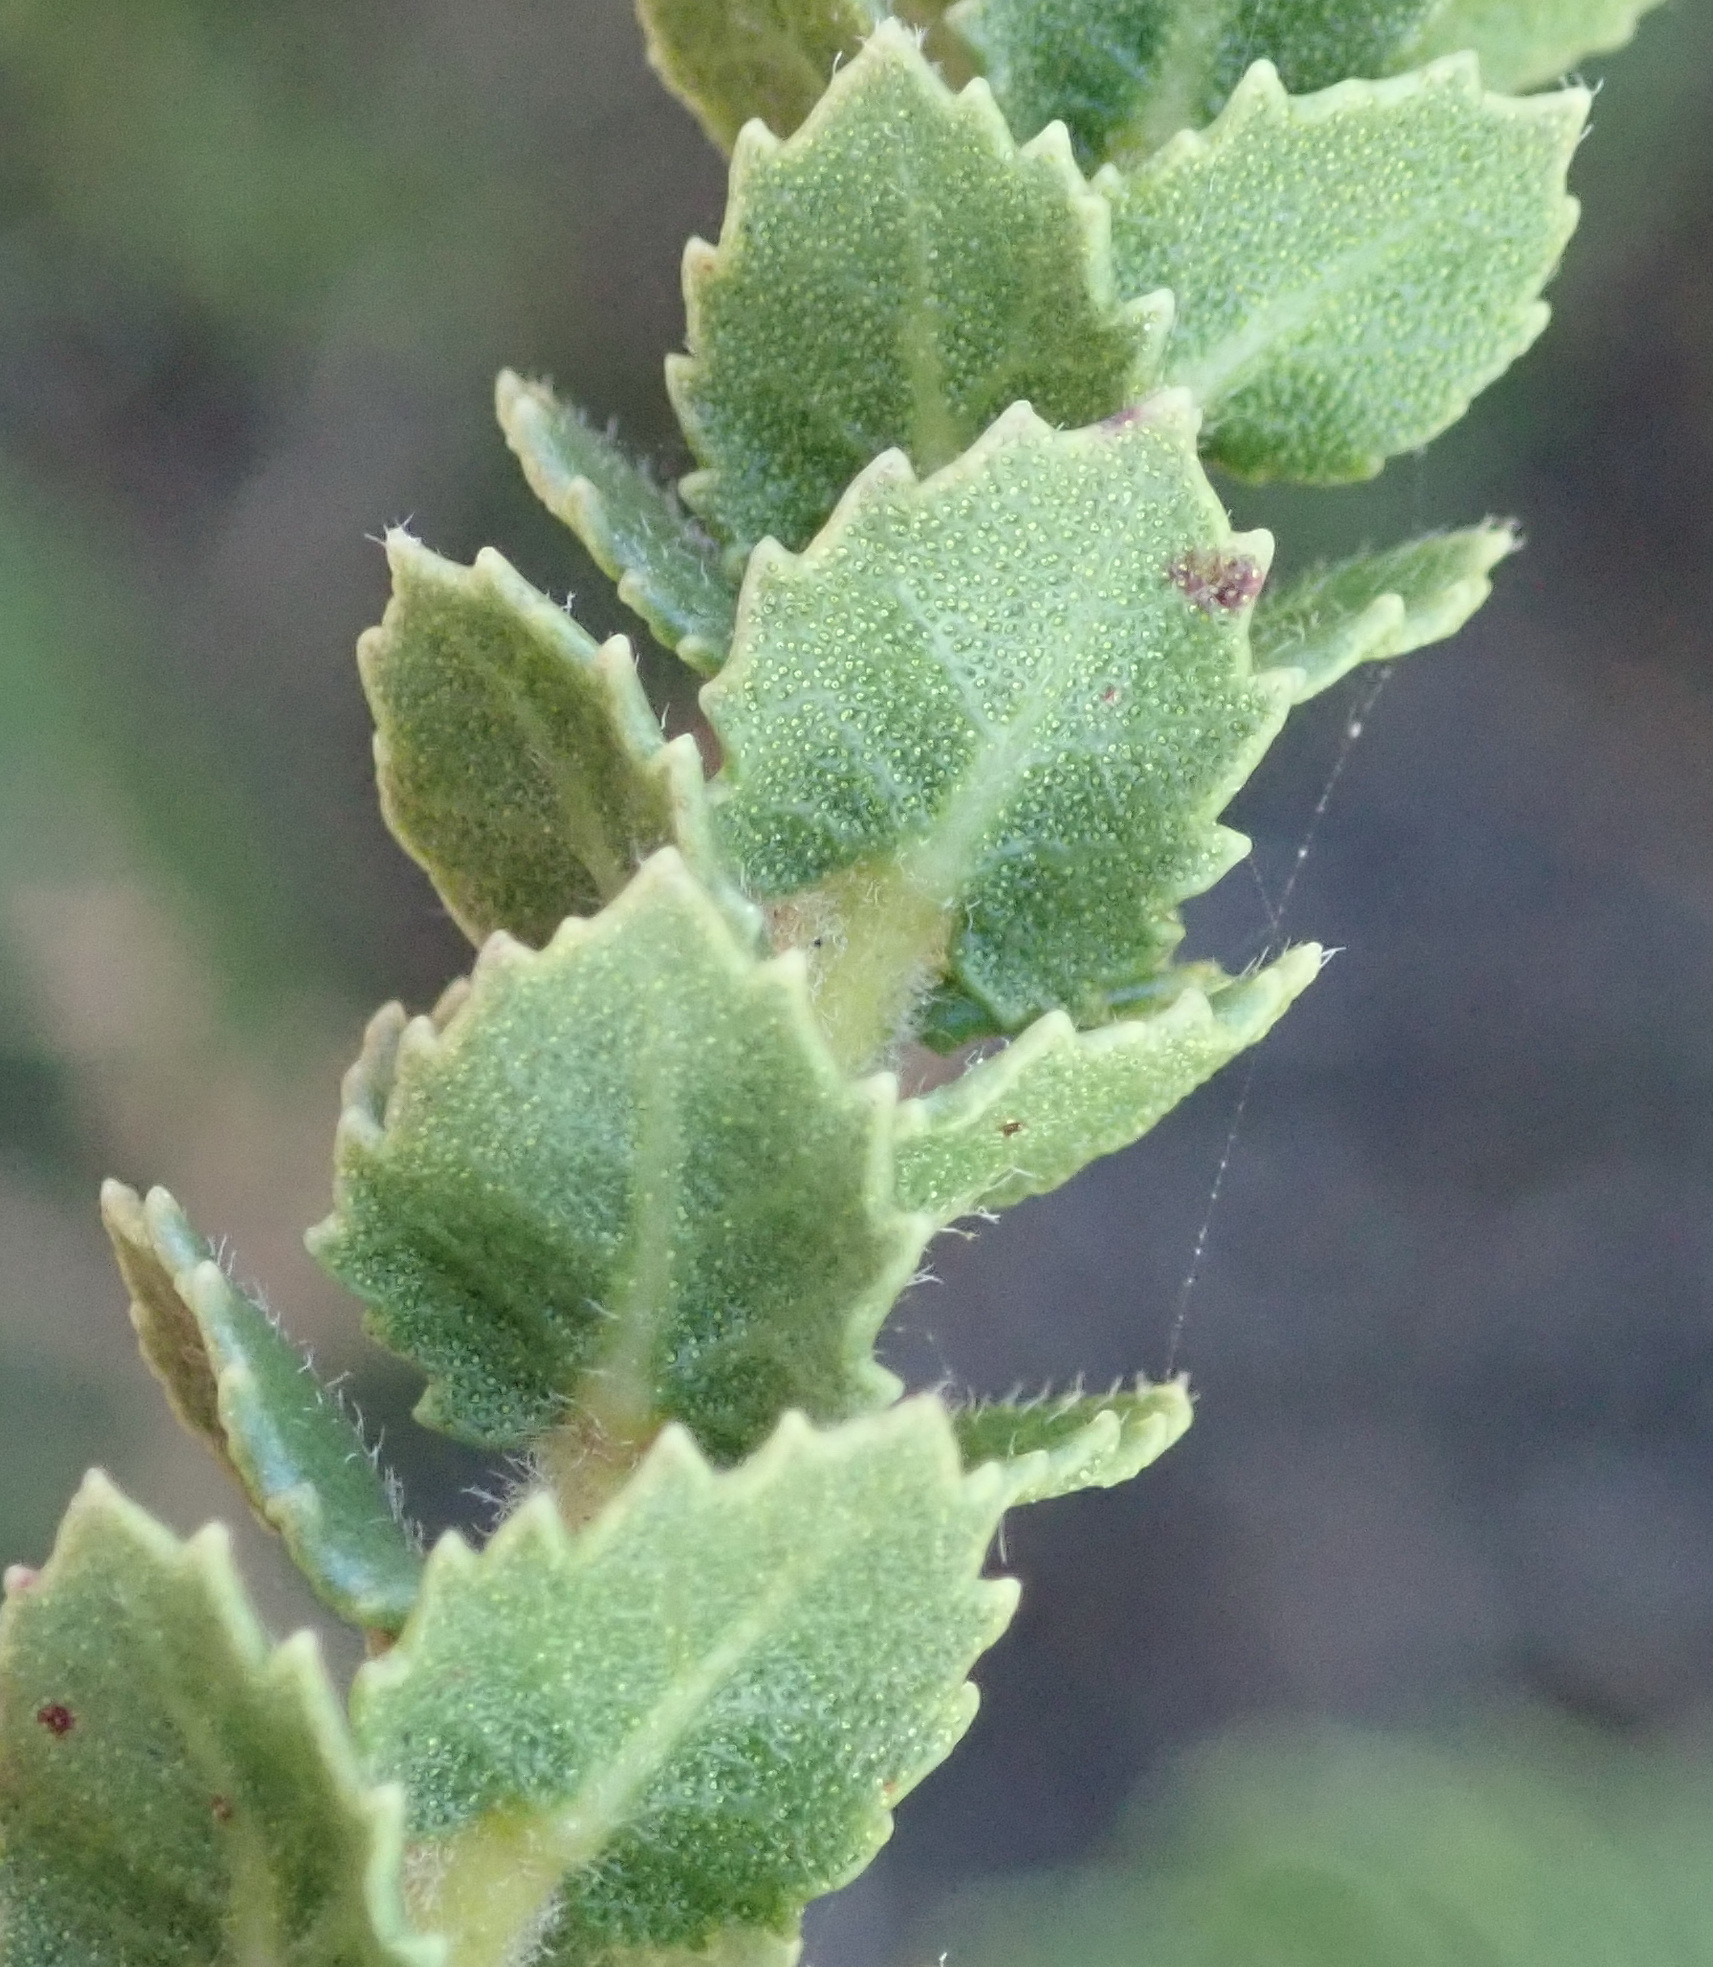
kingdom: Plantae
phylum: Tracheophyta
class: Magnoliopsida
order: Fagales
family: Myricaceae
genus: Morella
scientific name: Morella cordifolia
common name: Waxberry
